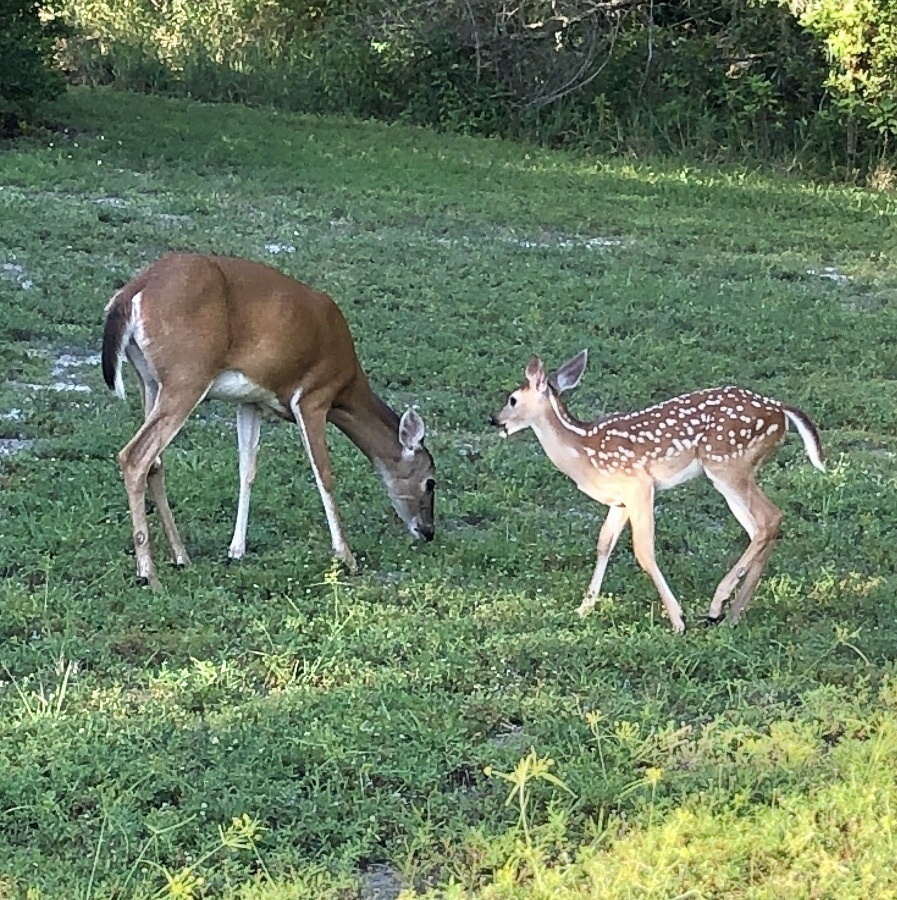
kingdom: Animalia
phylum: Chordata
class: Mammalia
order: Artiodactyla
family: Cervidae
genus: Odocoileus
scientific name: Odocoileus virginianus
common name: White-tailed deer
